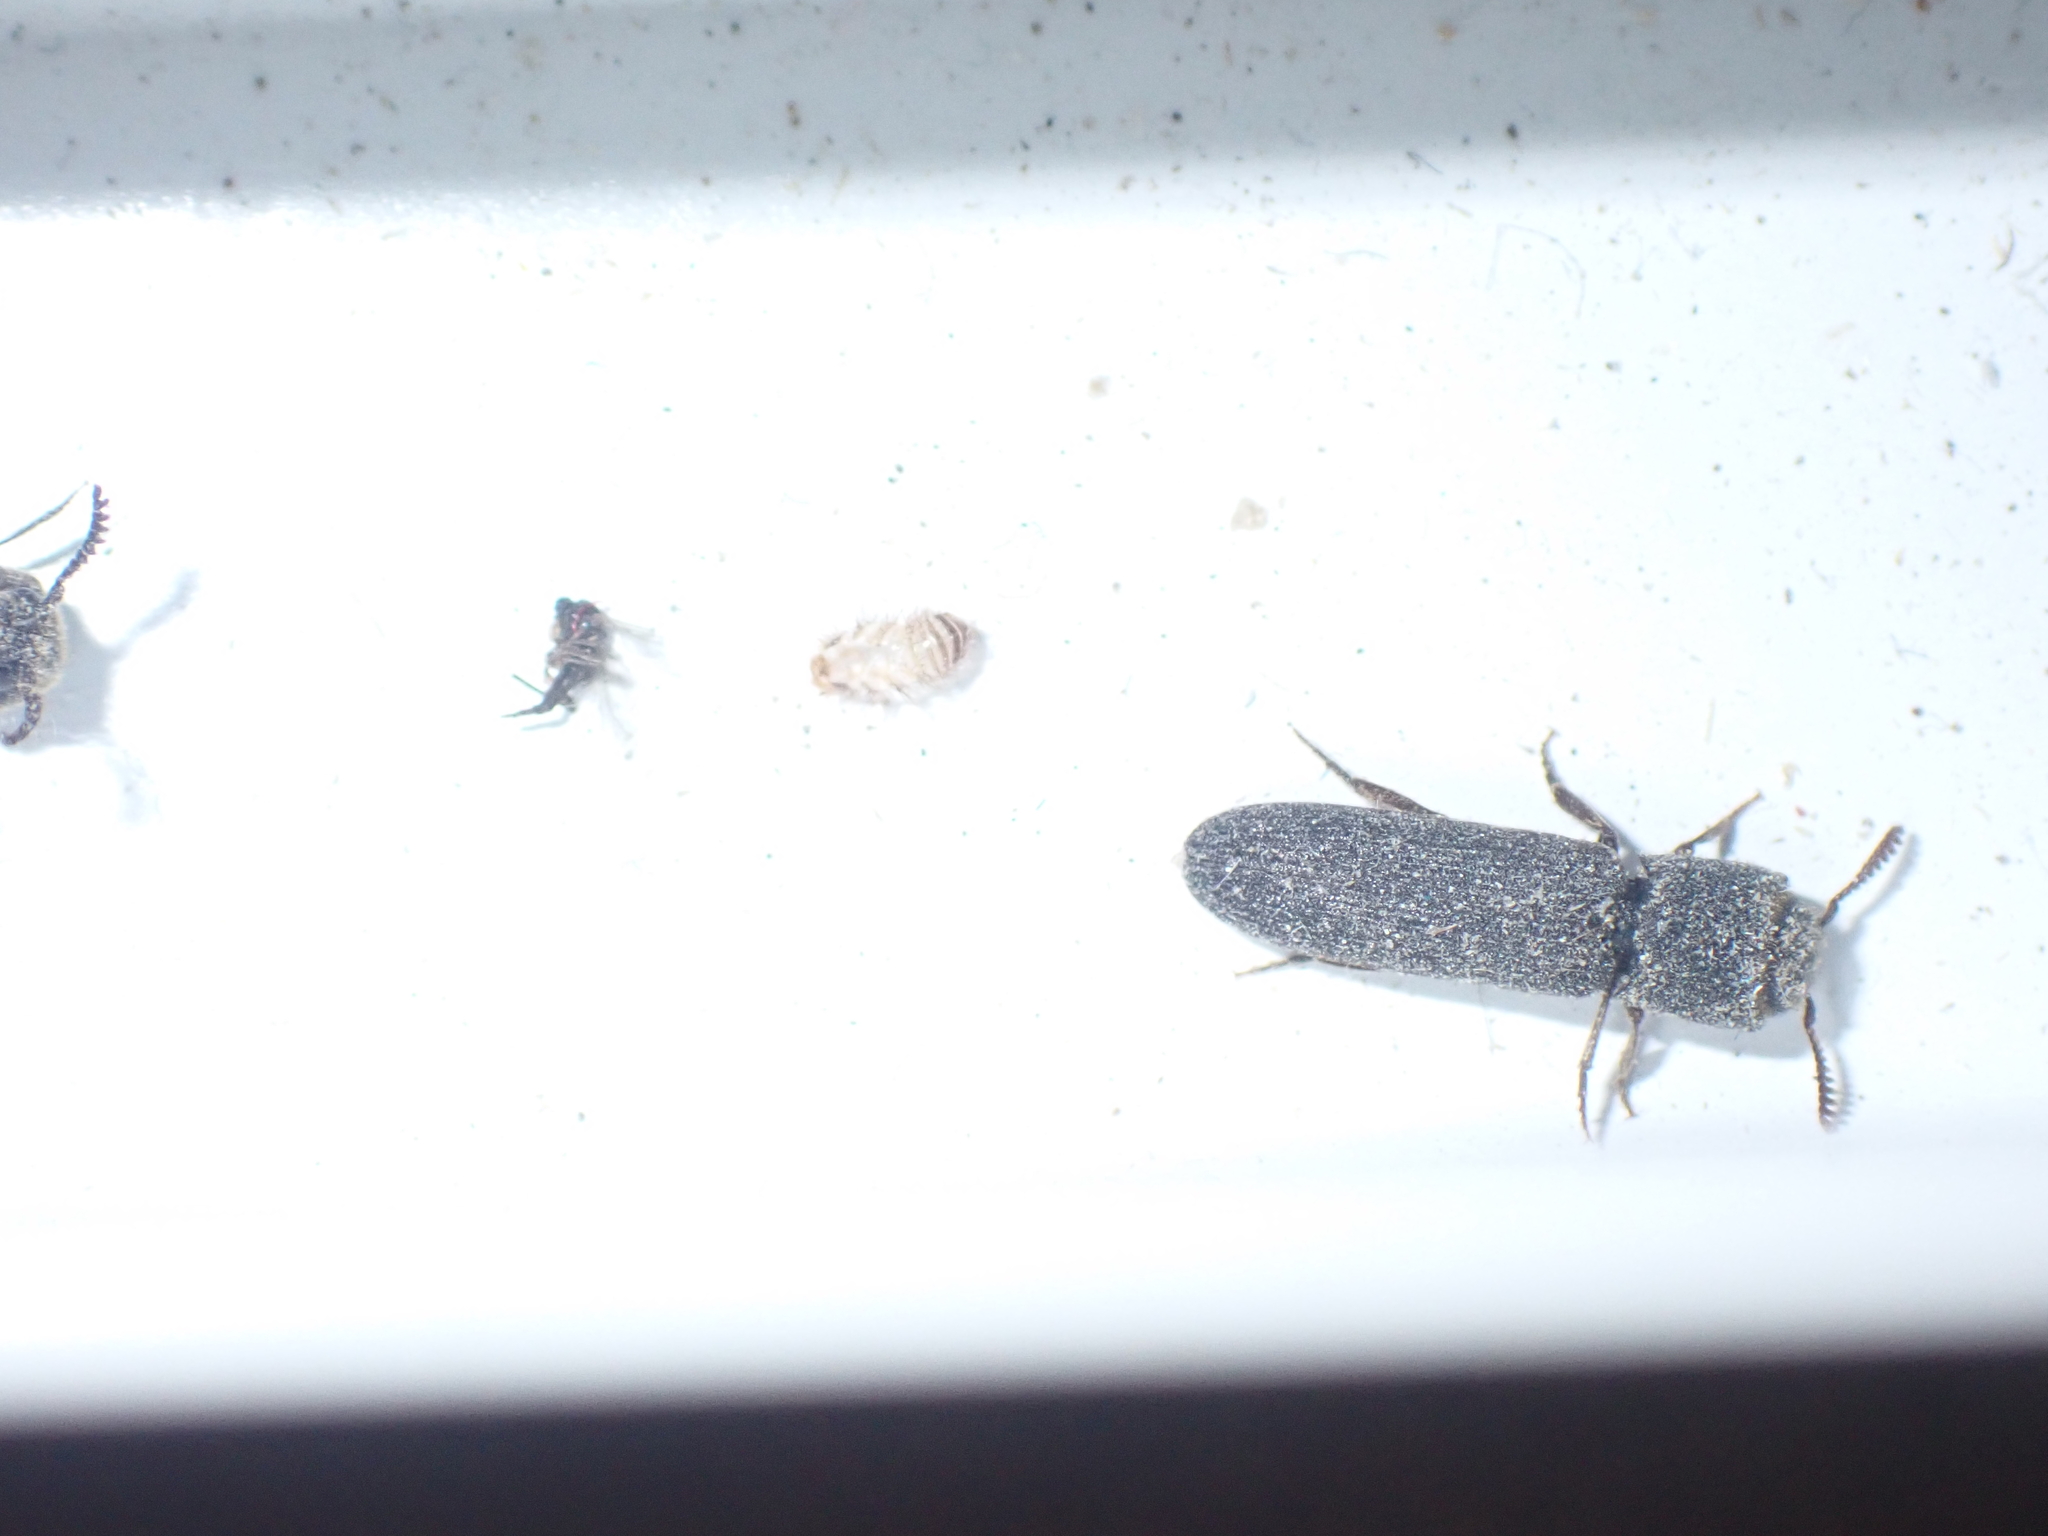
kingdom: Animalia
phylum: Arthropoda
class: Insecta
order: Coleoptera
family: Eucnemidae
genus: Melasis
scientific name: Melasis buprestoides
